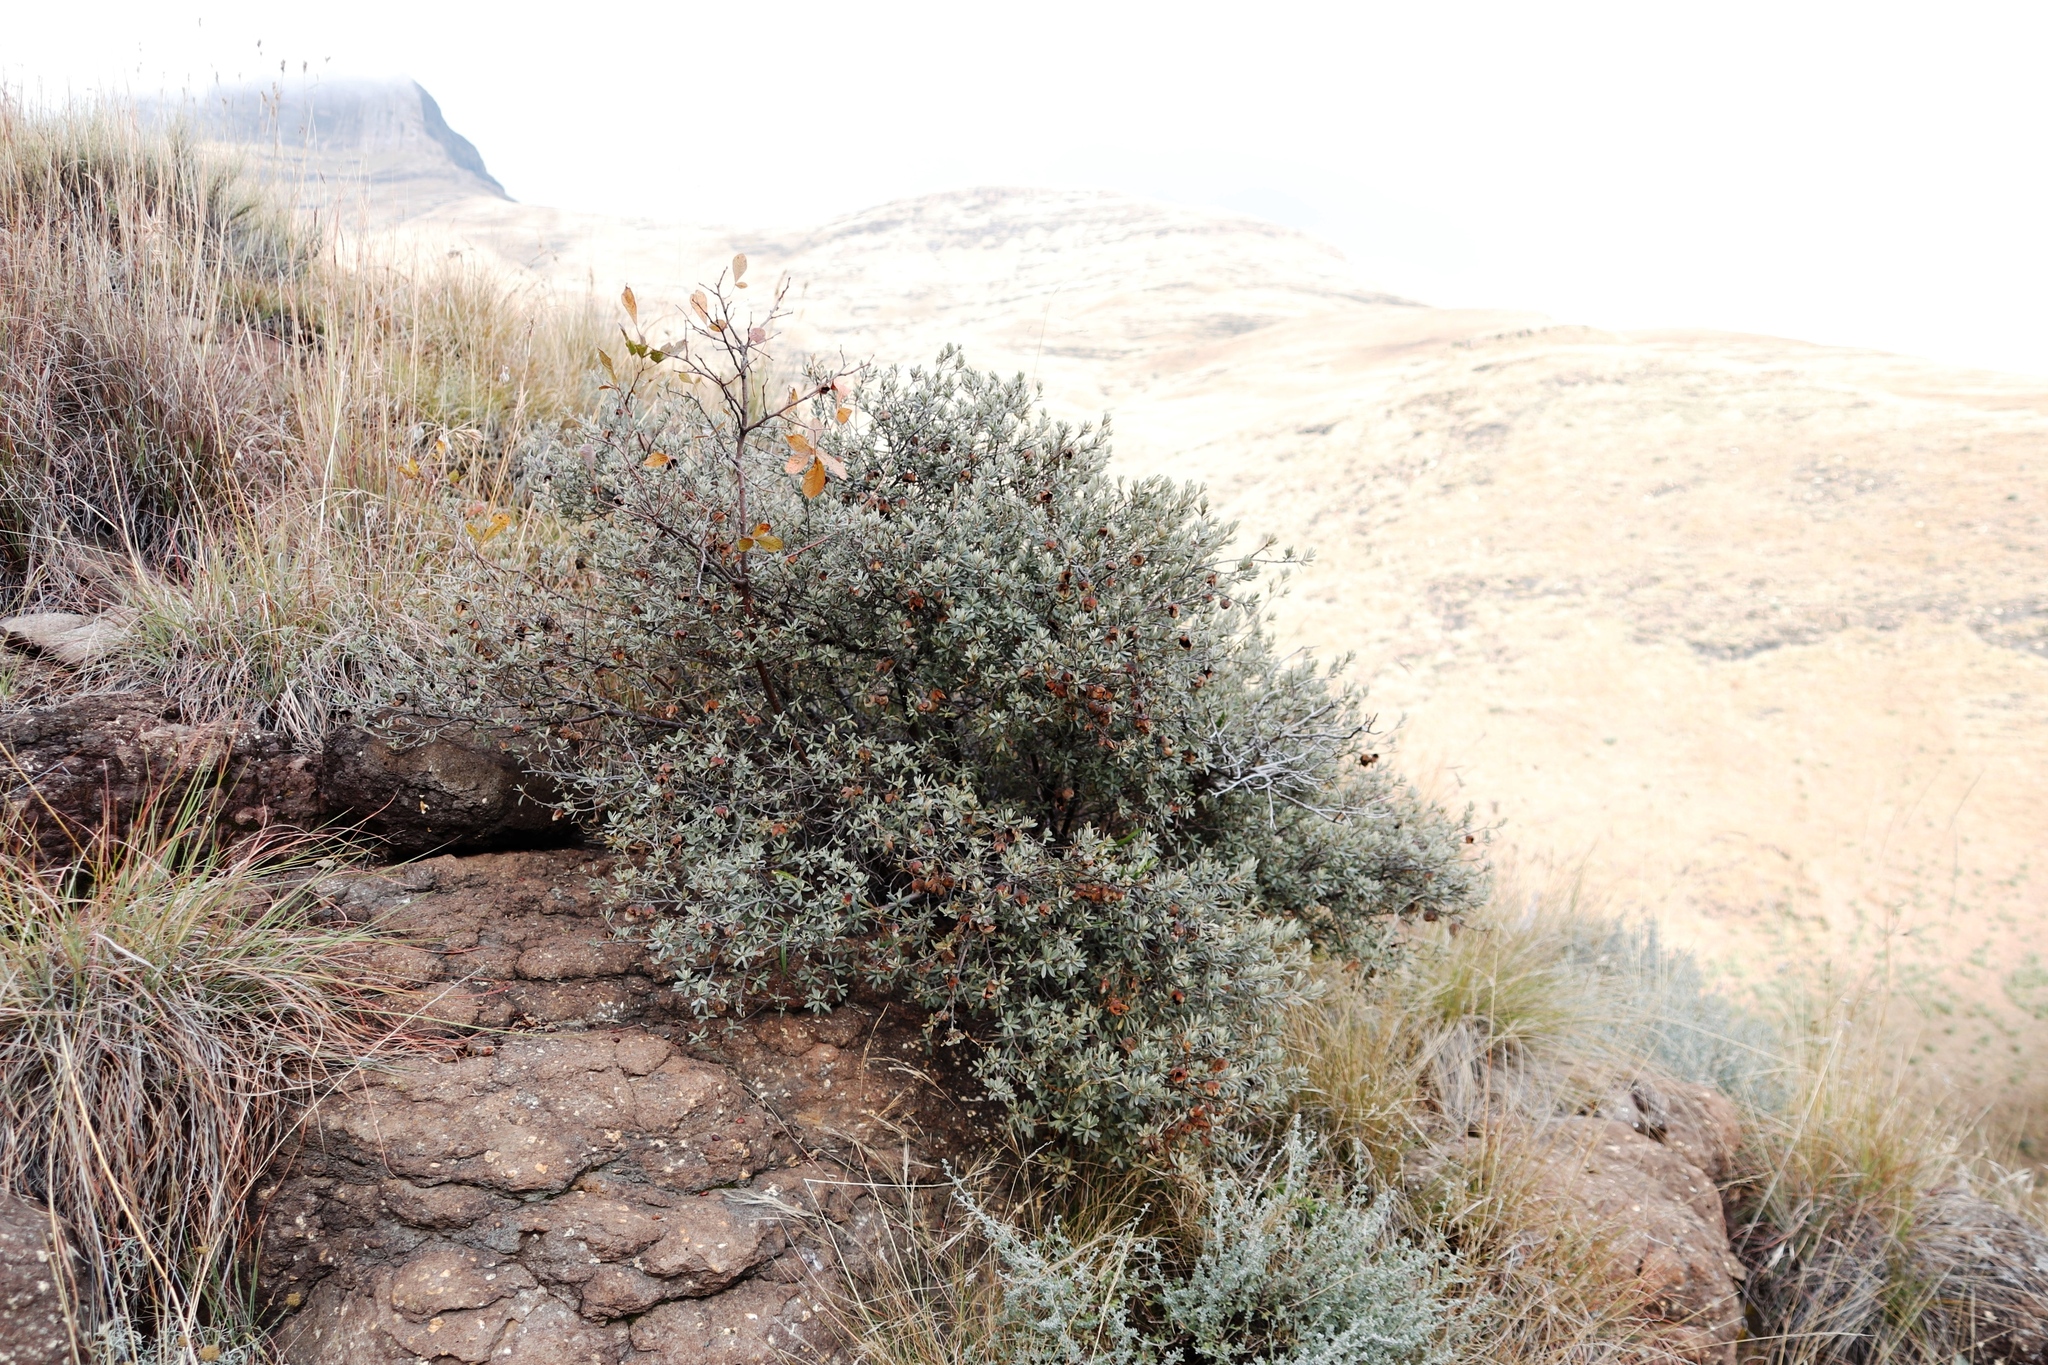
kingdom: Plantae
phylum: Tracheophyta
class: Magnoliopsida
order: Ericales
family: Ebenaceae
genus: Diospyros
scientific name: Diospyros pubescens
